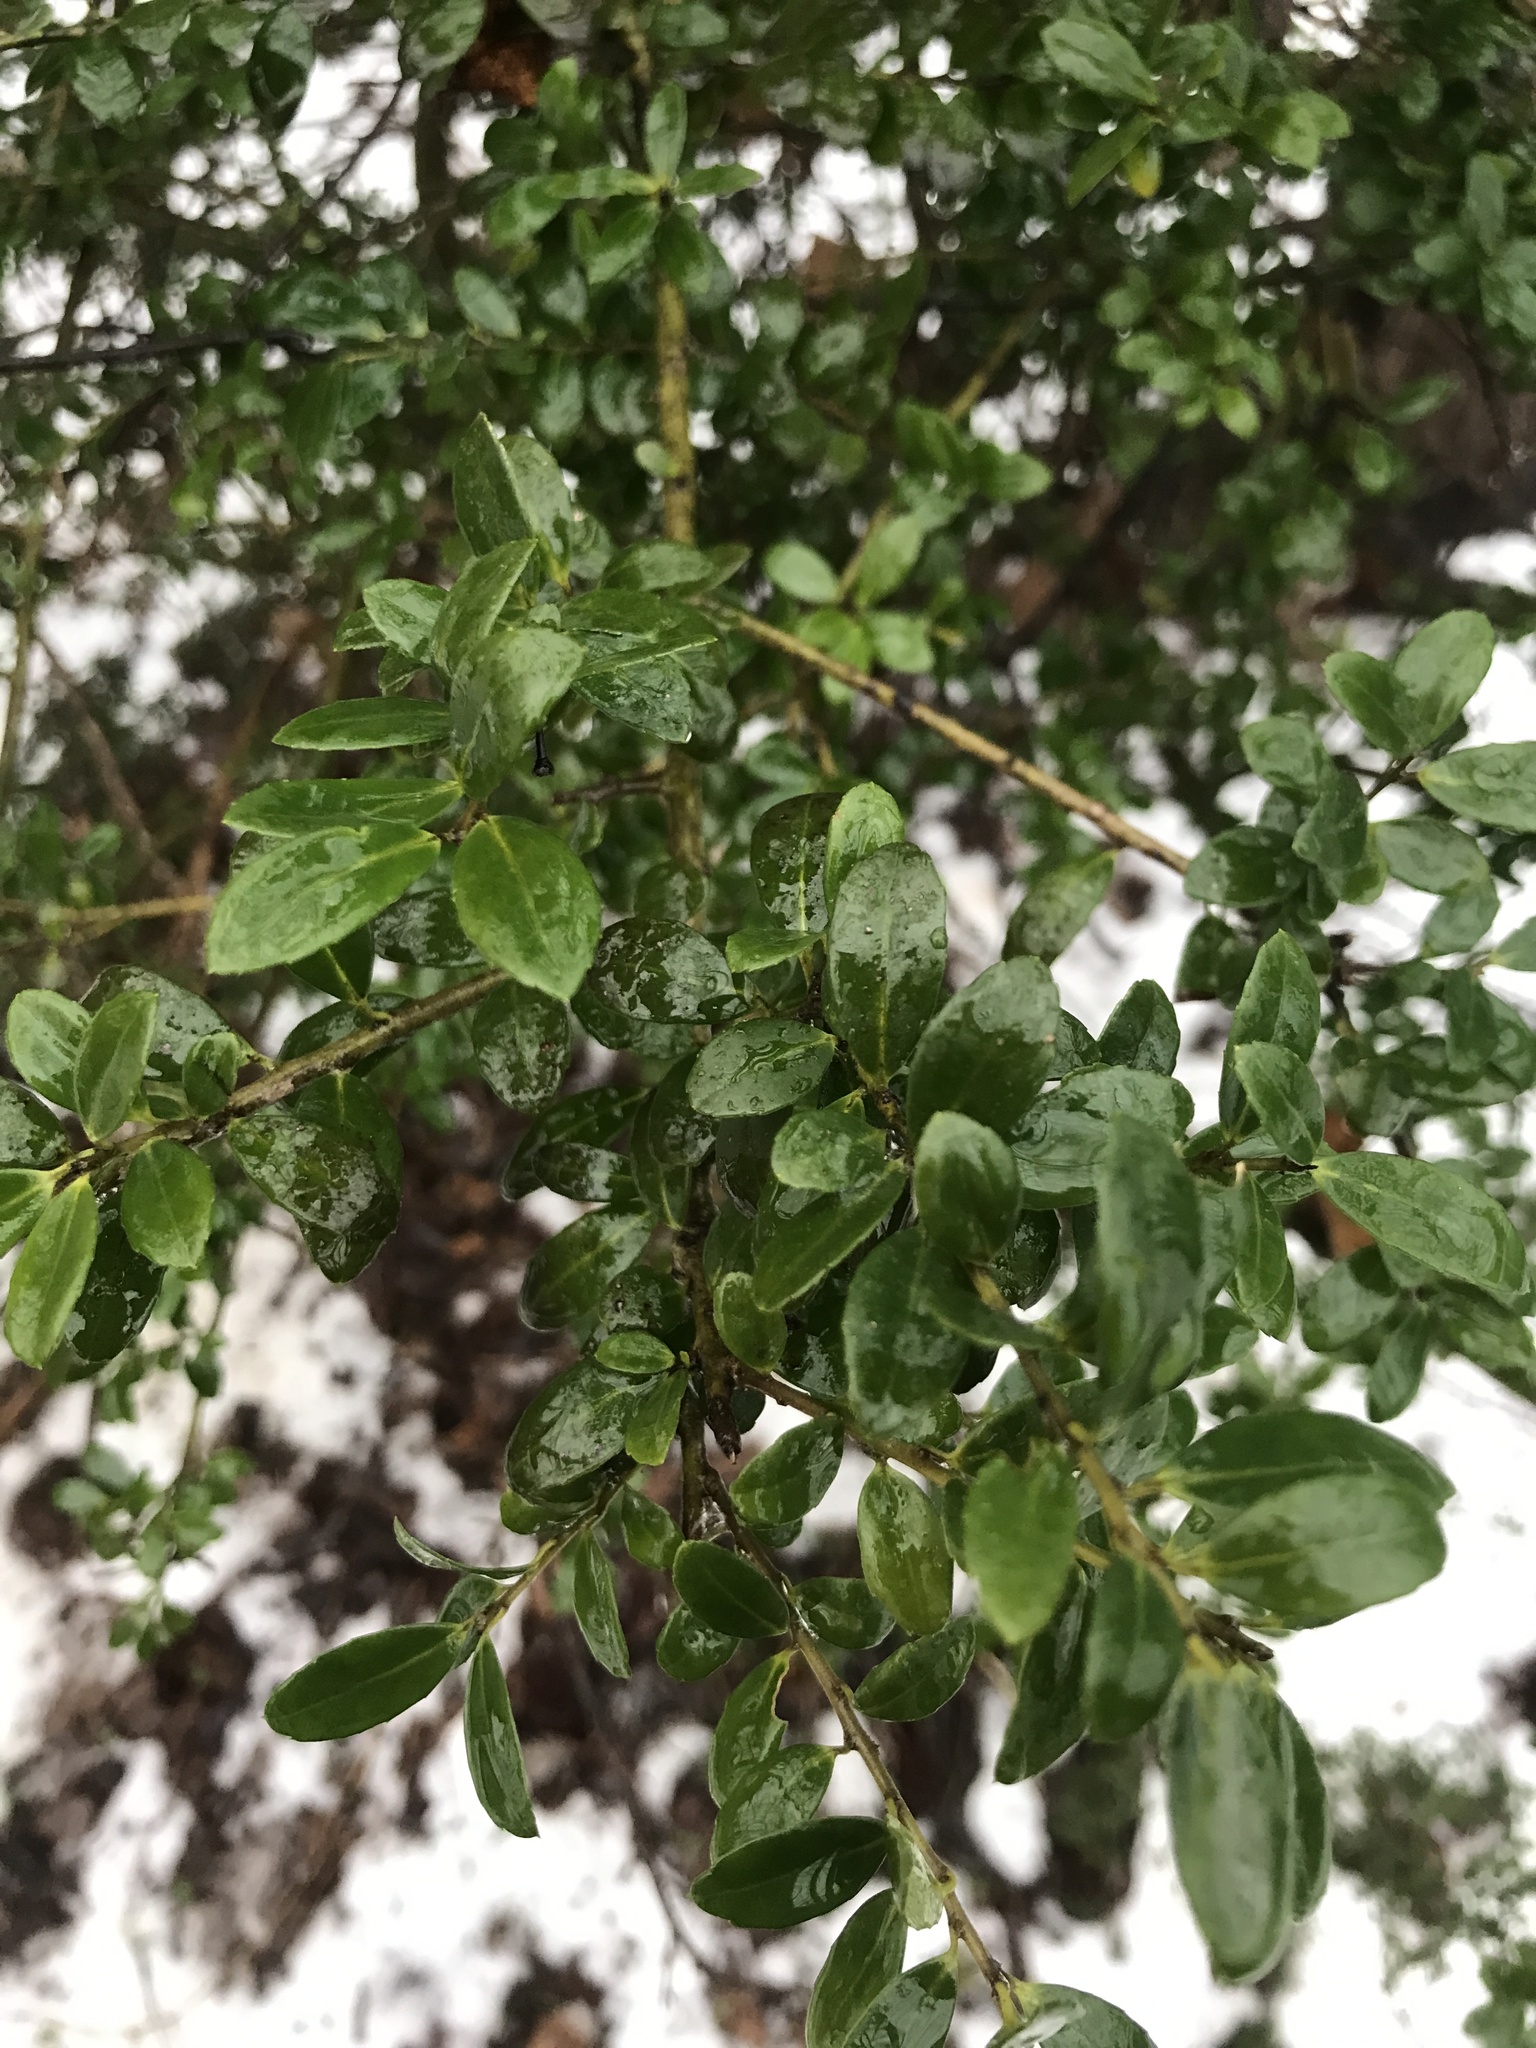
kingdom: Plantae
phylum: Tracheophyta
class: Magnoliopsida
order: Aquifoliales
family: Aquifoliaceae
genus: Ilex
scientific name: Ilex crenata
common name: Japanese holly
